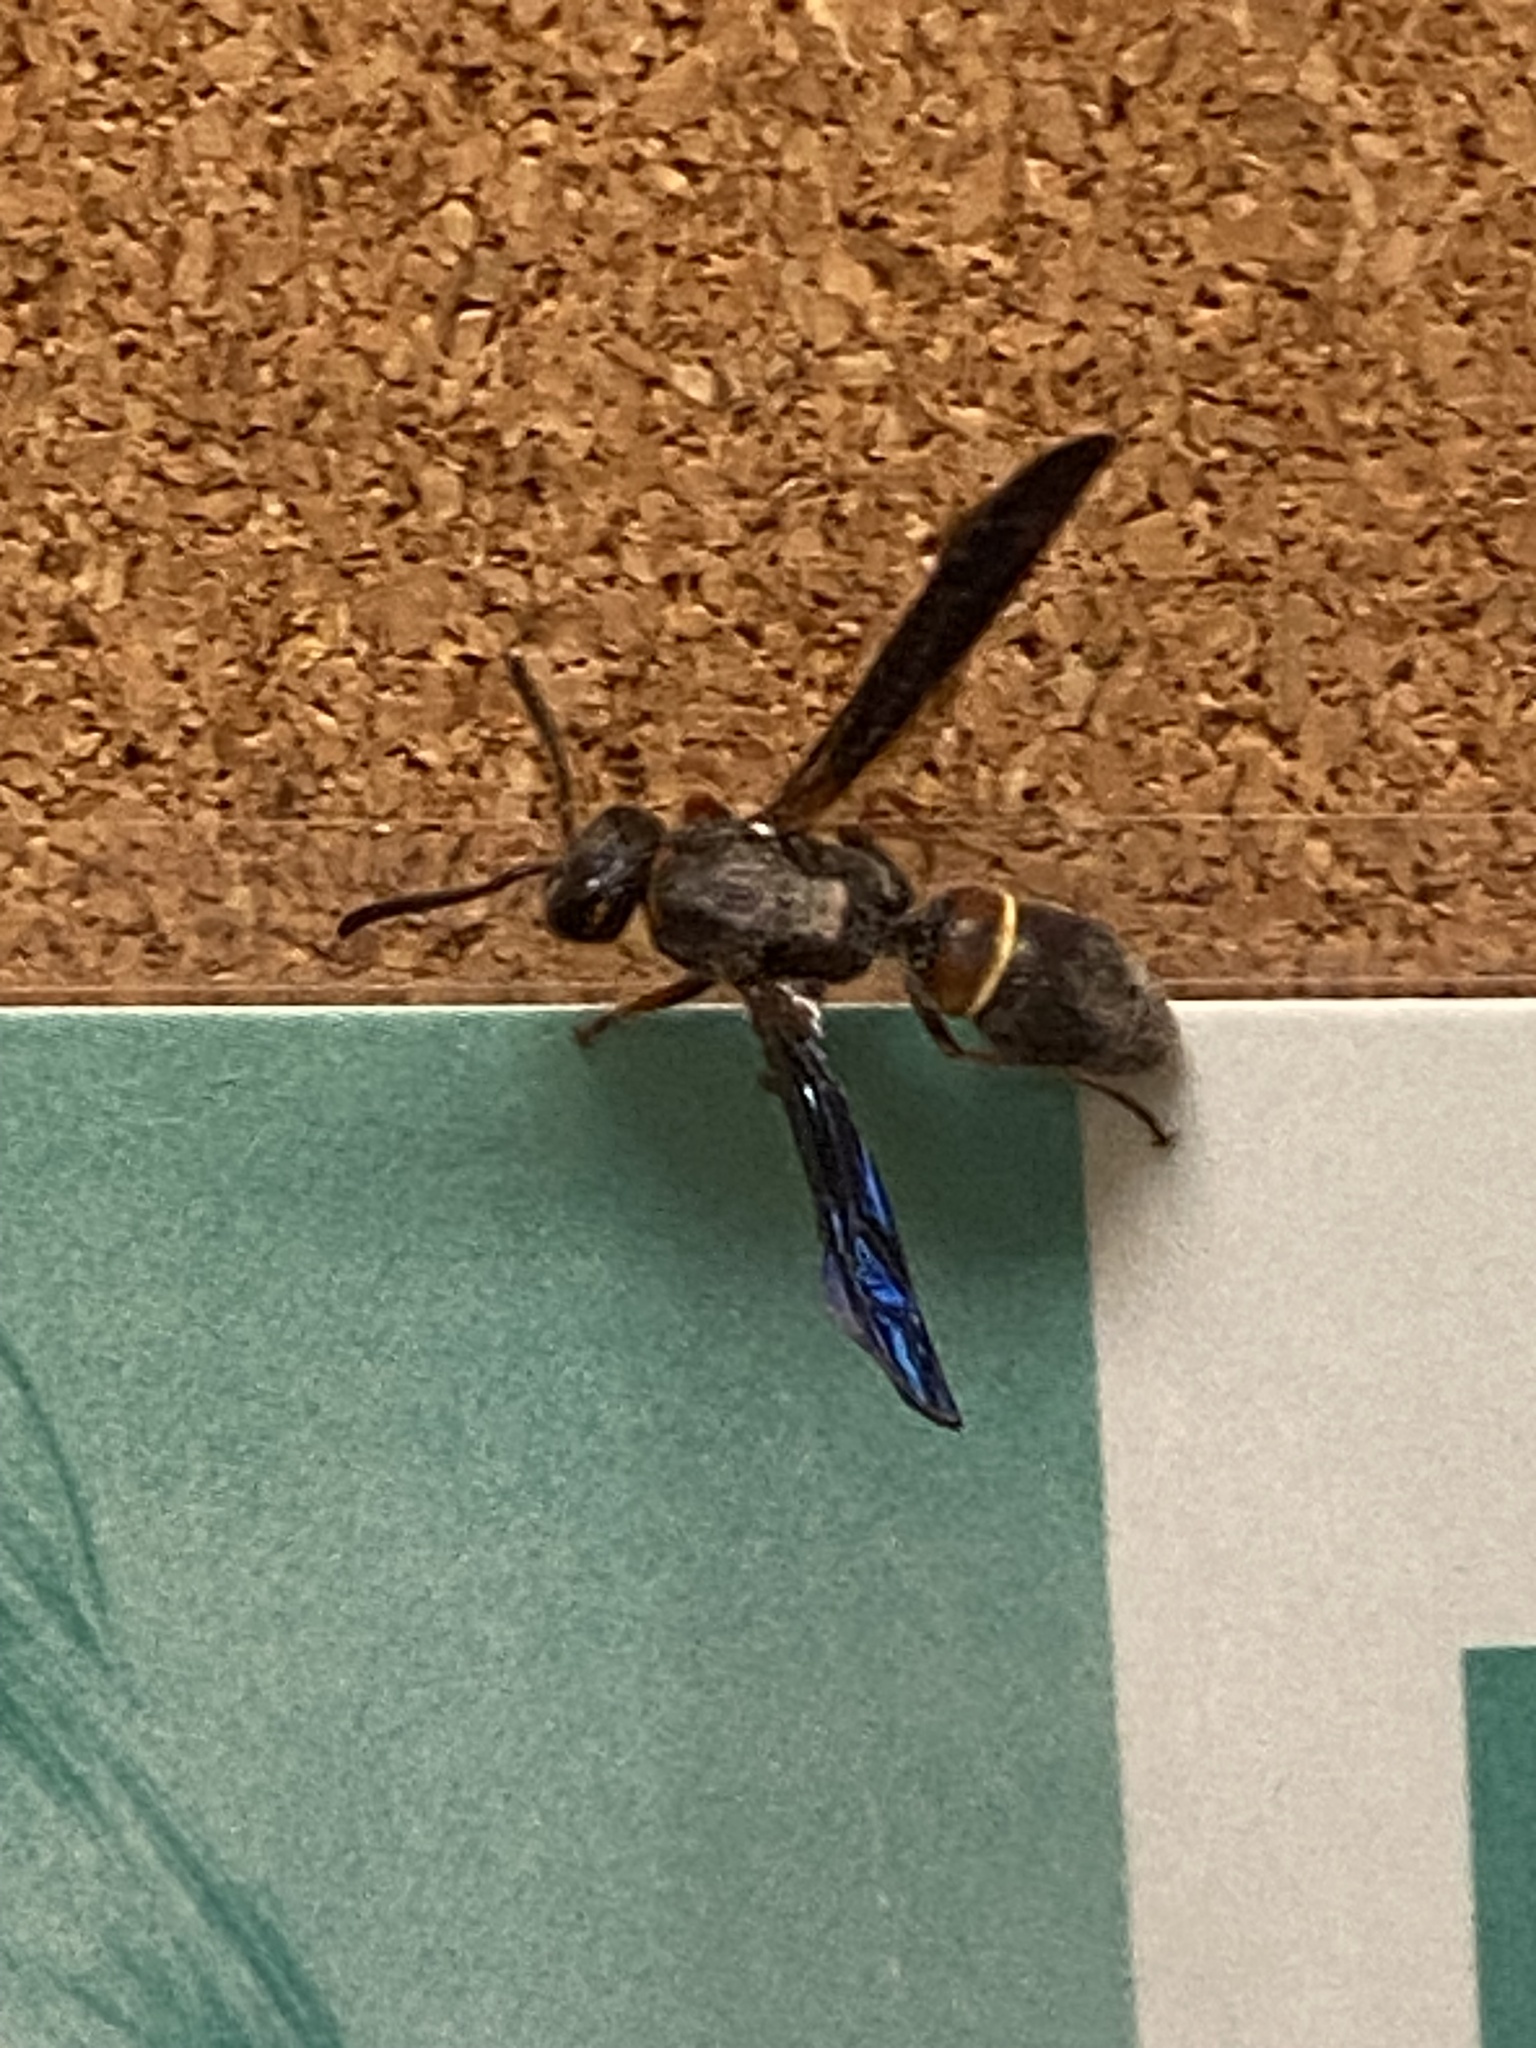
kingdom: Animalia
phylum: Arthropoda
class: Insecta
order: Hymenoptera
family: Vespidae
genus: Ancistrocerus
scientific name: Ancistrocerus unifasciatus
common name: One-banded mason wasp
